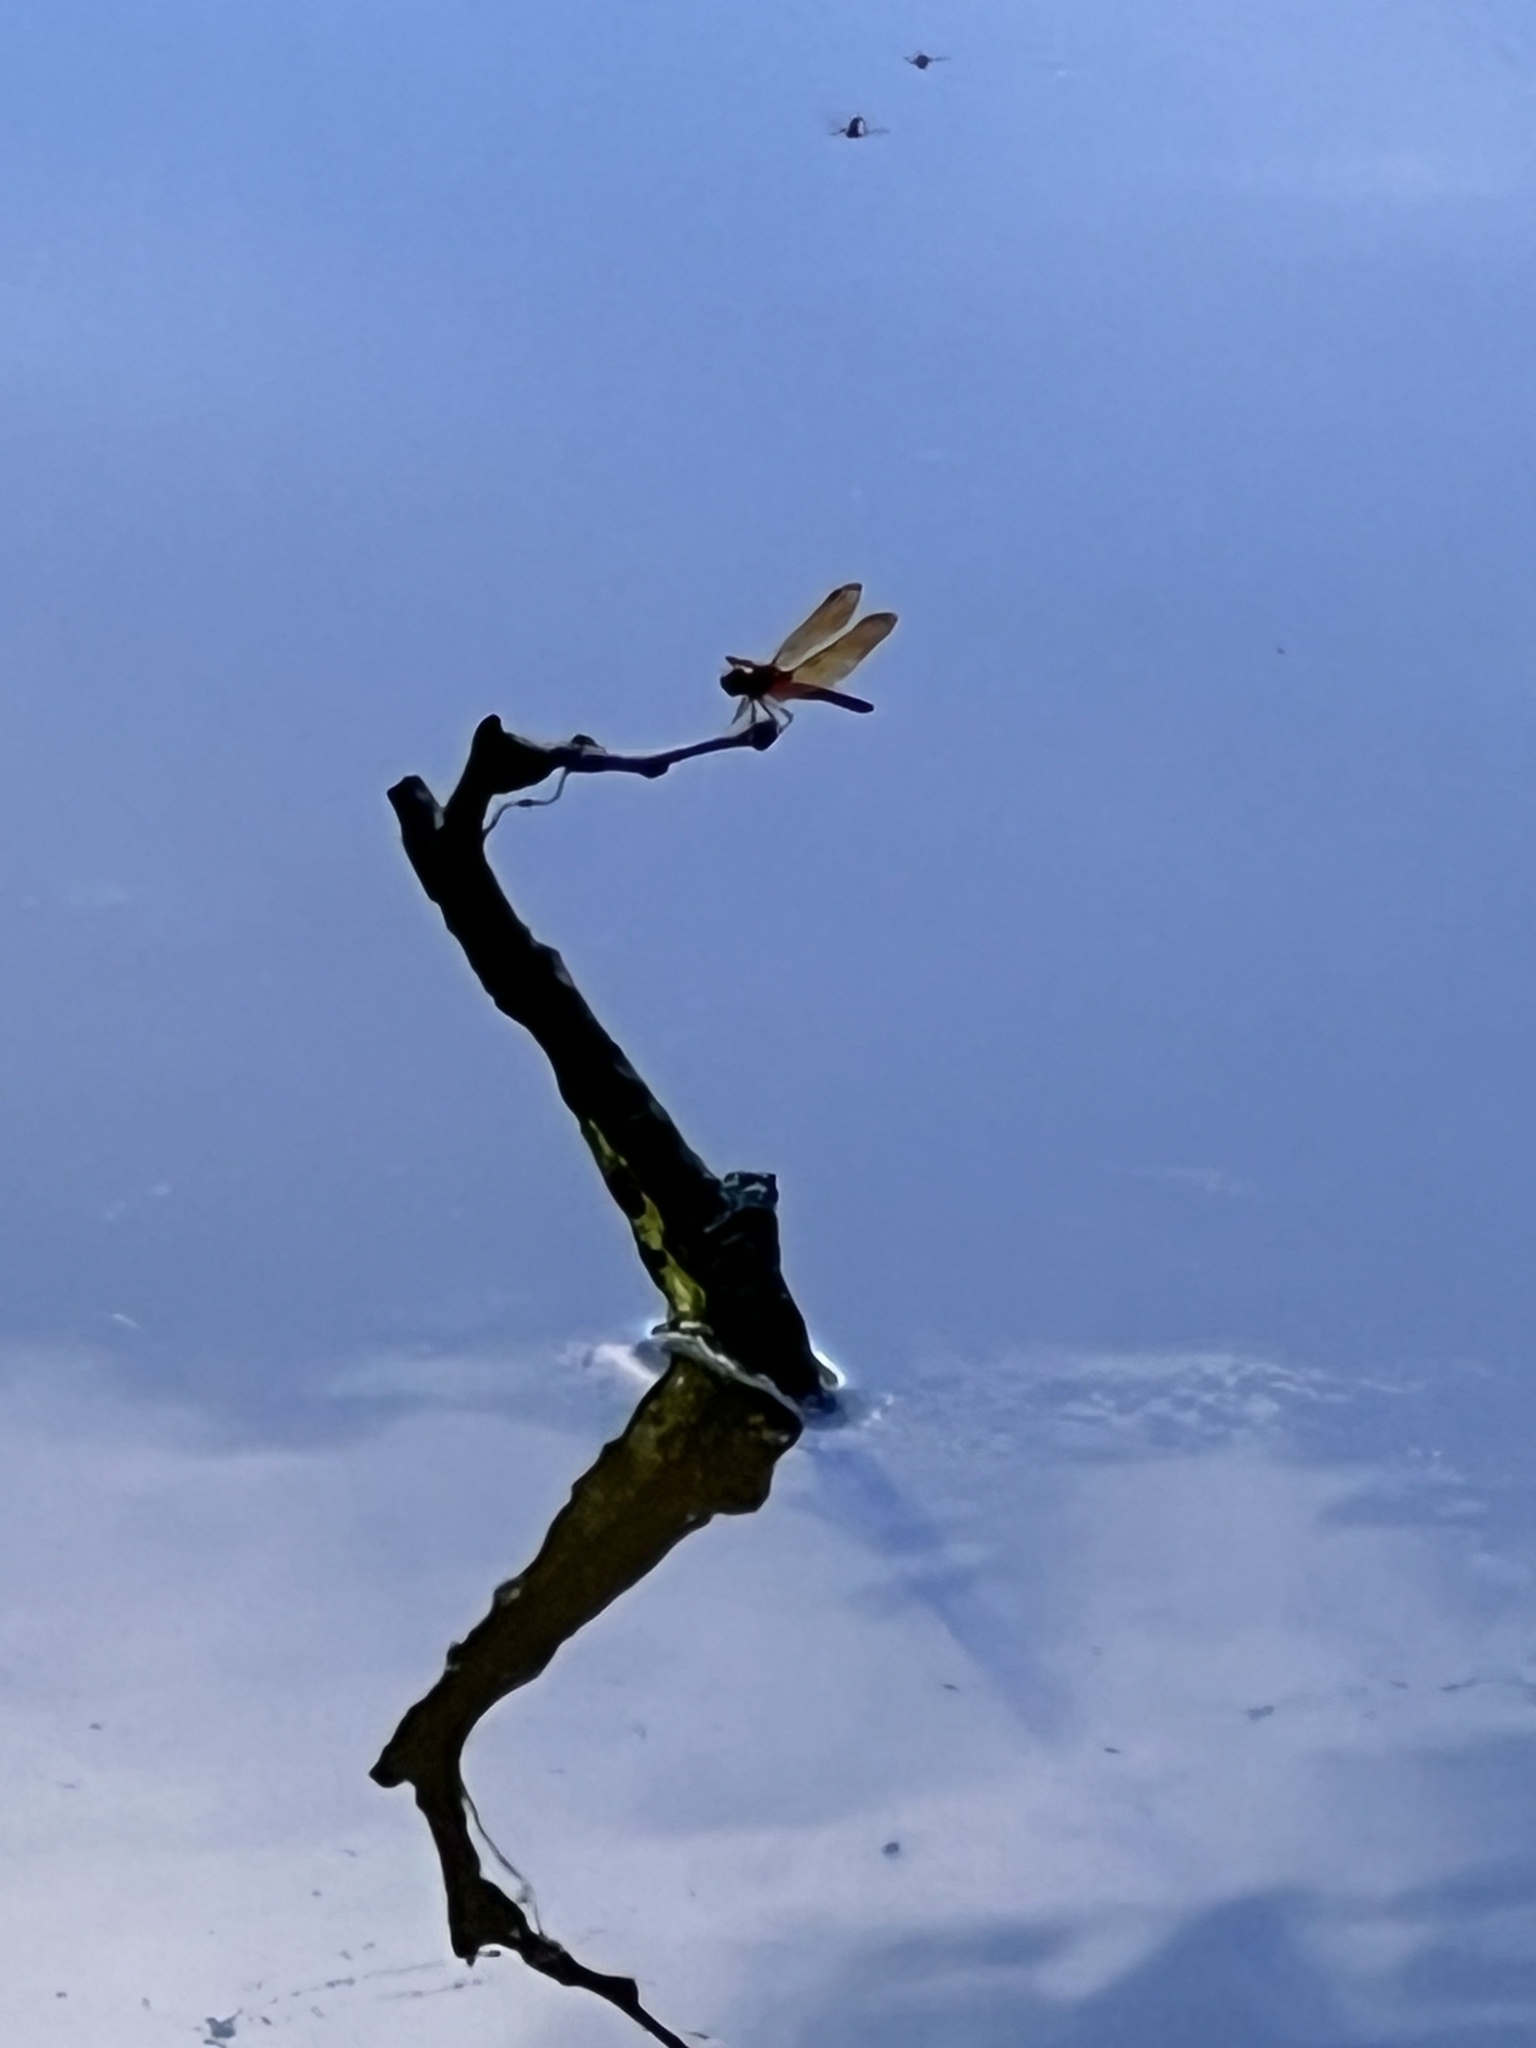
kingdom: Animalia
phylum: Arthropoda
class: Insecta
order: Odonata
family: Libellulidae
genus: Perithemis
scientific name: Perithemis tenera
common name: Eastern amberwing
